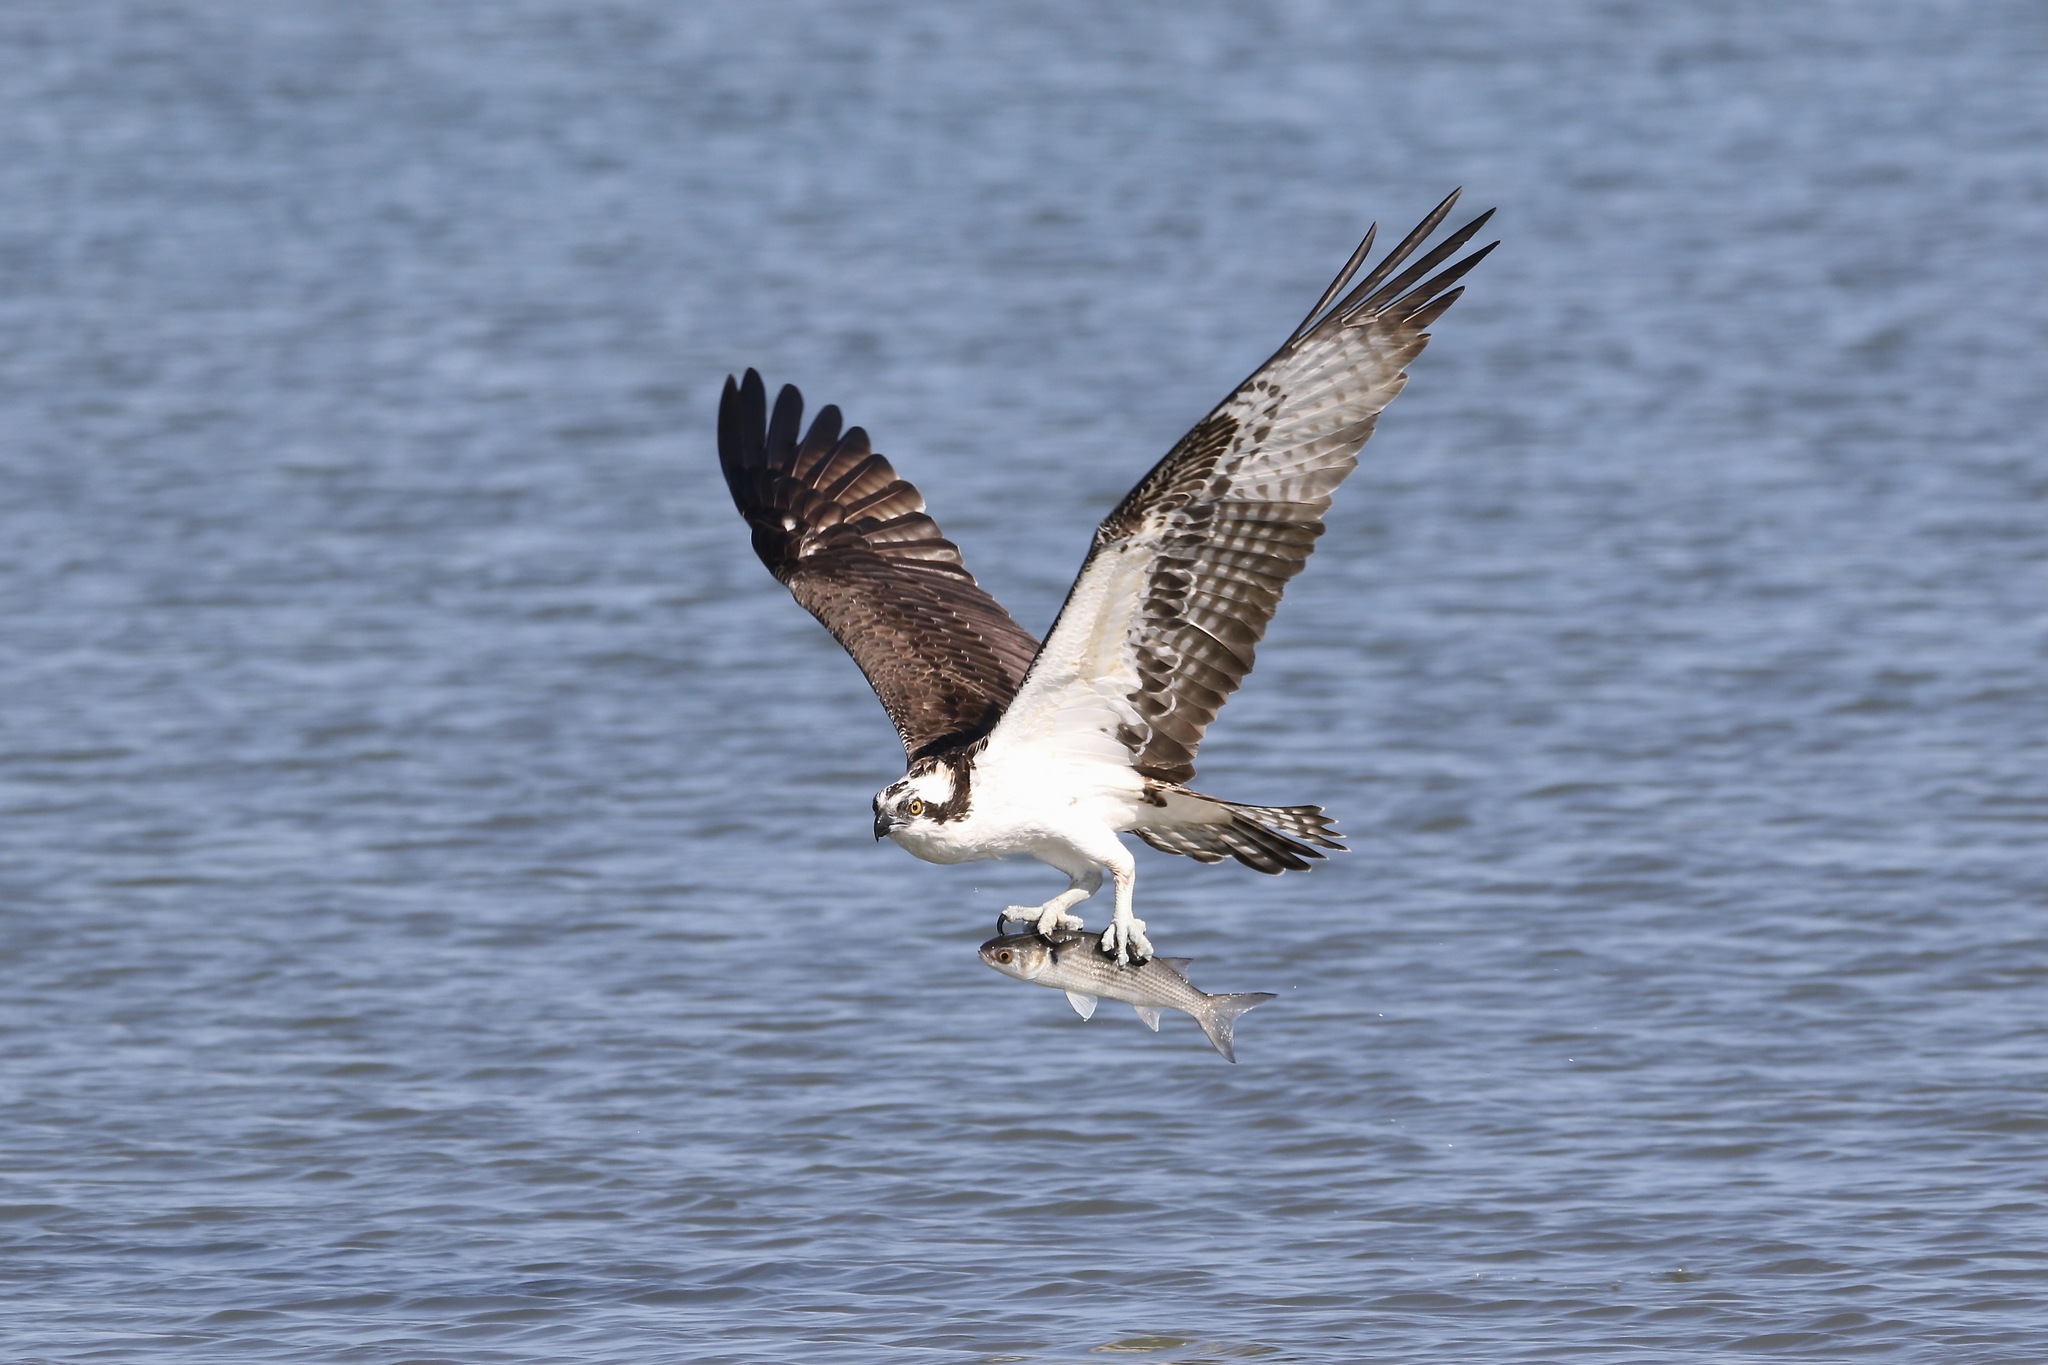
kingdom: Animalia
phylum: Chordata
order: Mugiliformes
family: Mugilidae
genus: Mugil
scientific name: Mugil cephalus
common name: Grey mullet
